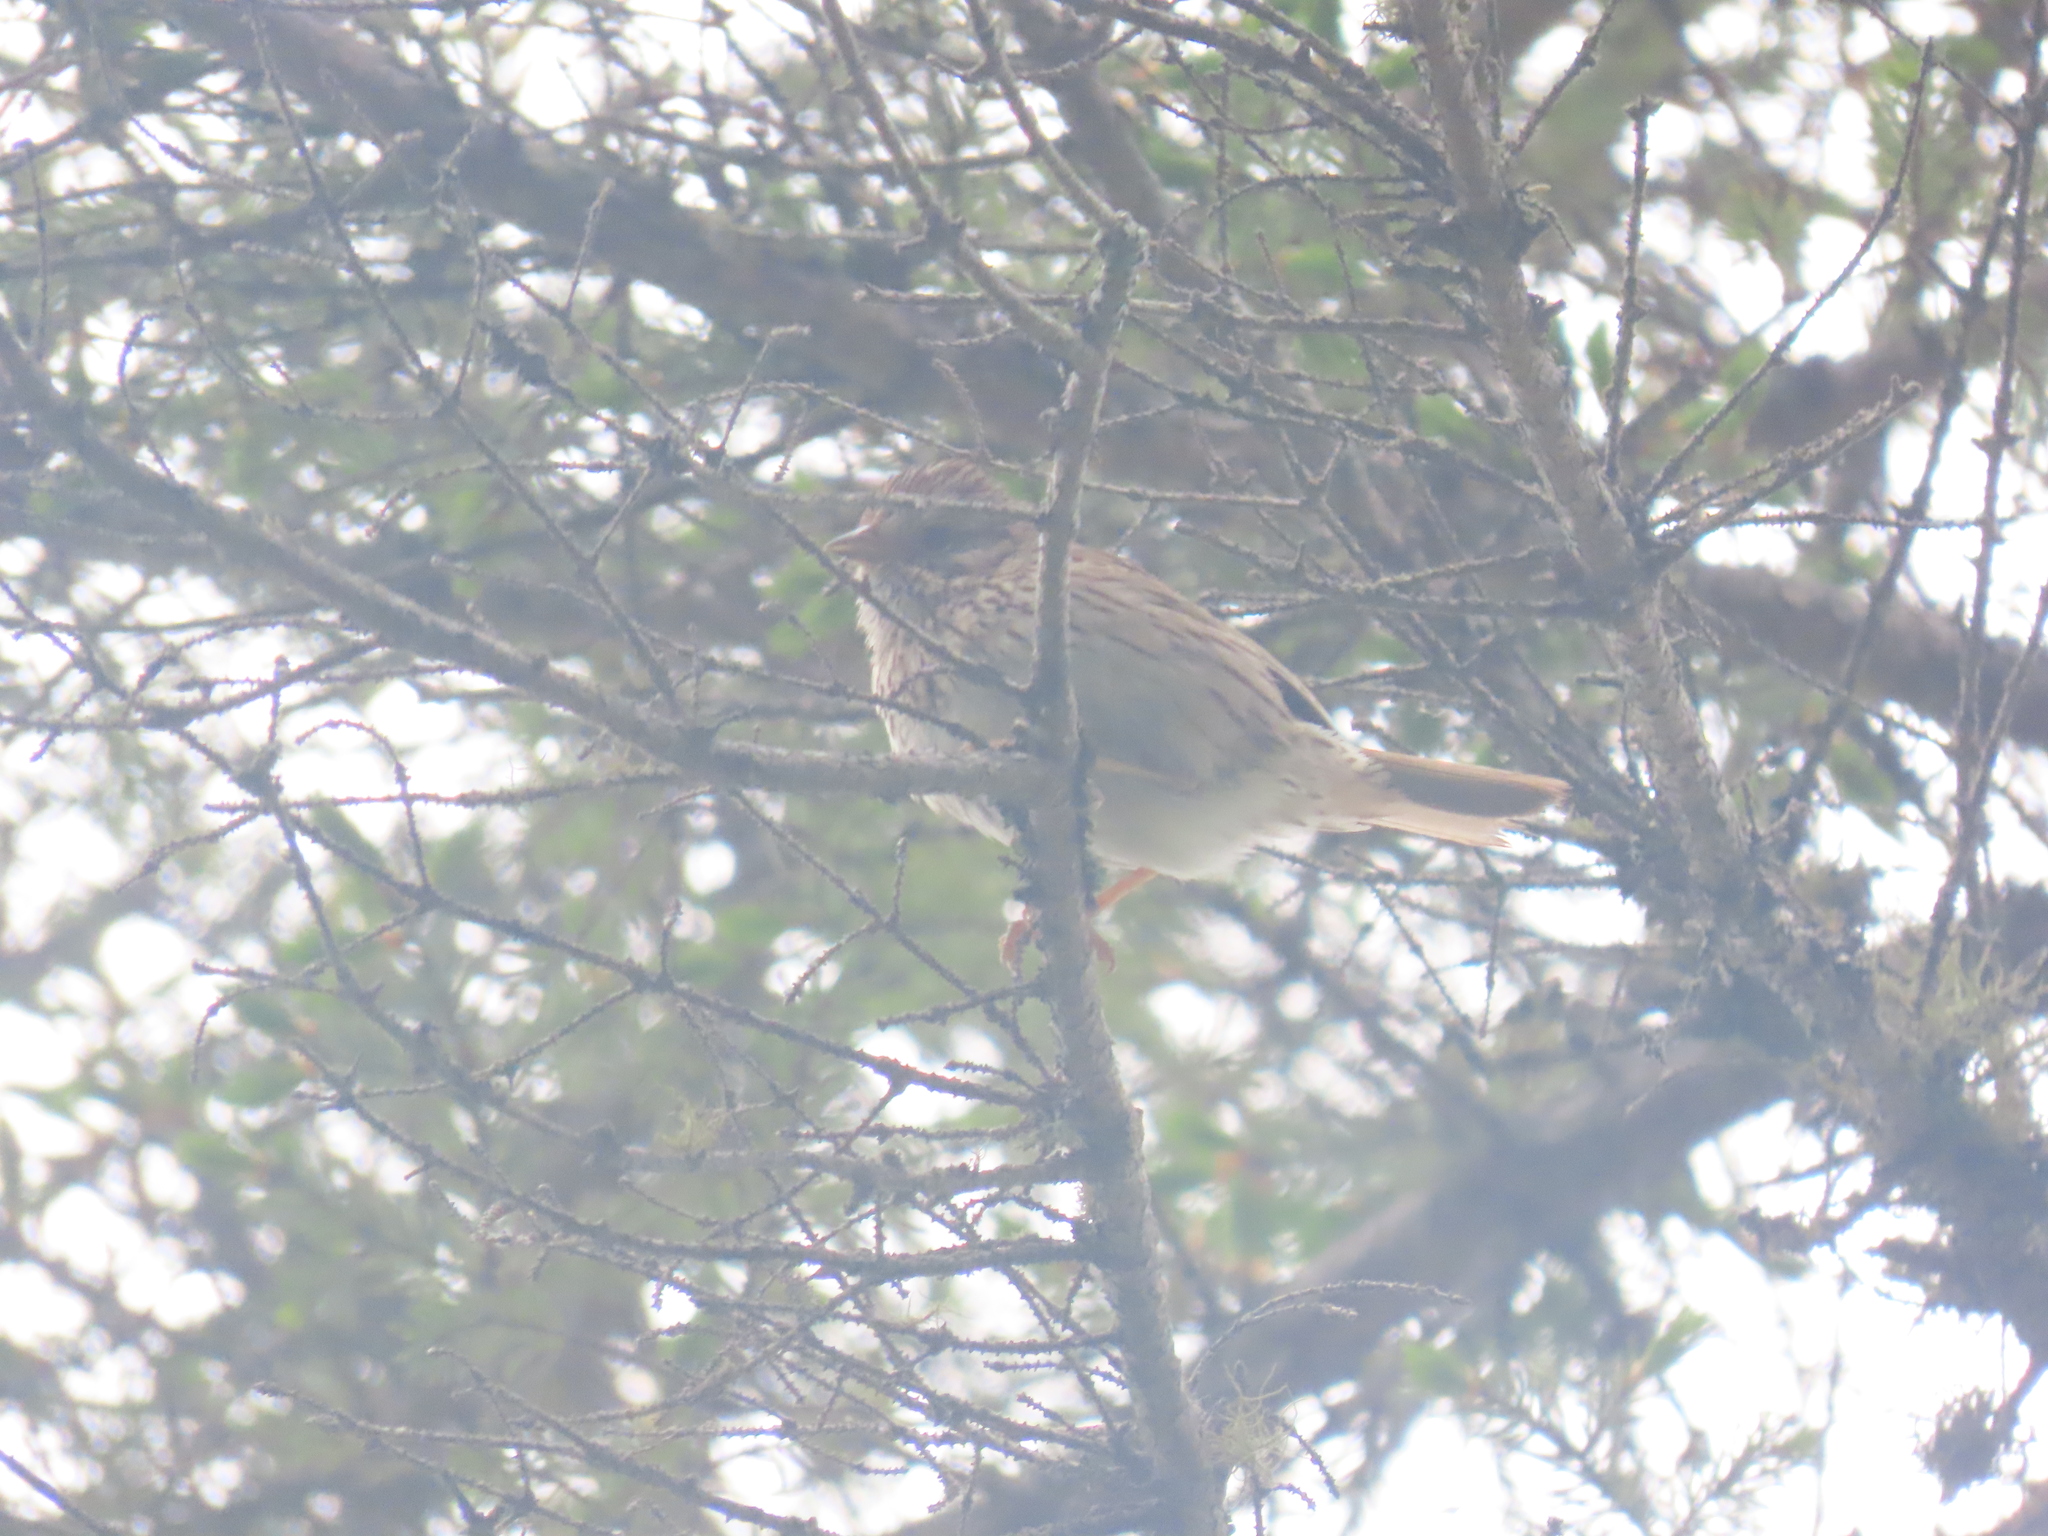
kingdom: Animalia
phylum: Chordata
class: Aves
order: Passeriformes
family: Passerellidae
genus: Melospiza
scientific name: Melospiza lincolnii
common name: Lincoln's sparrow
